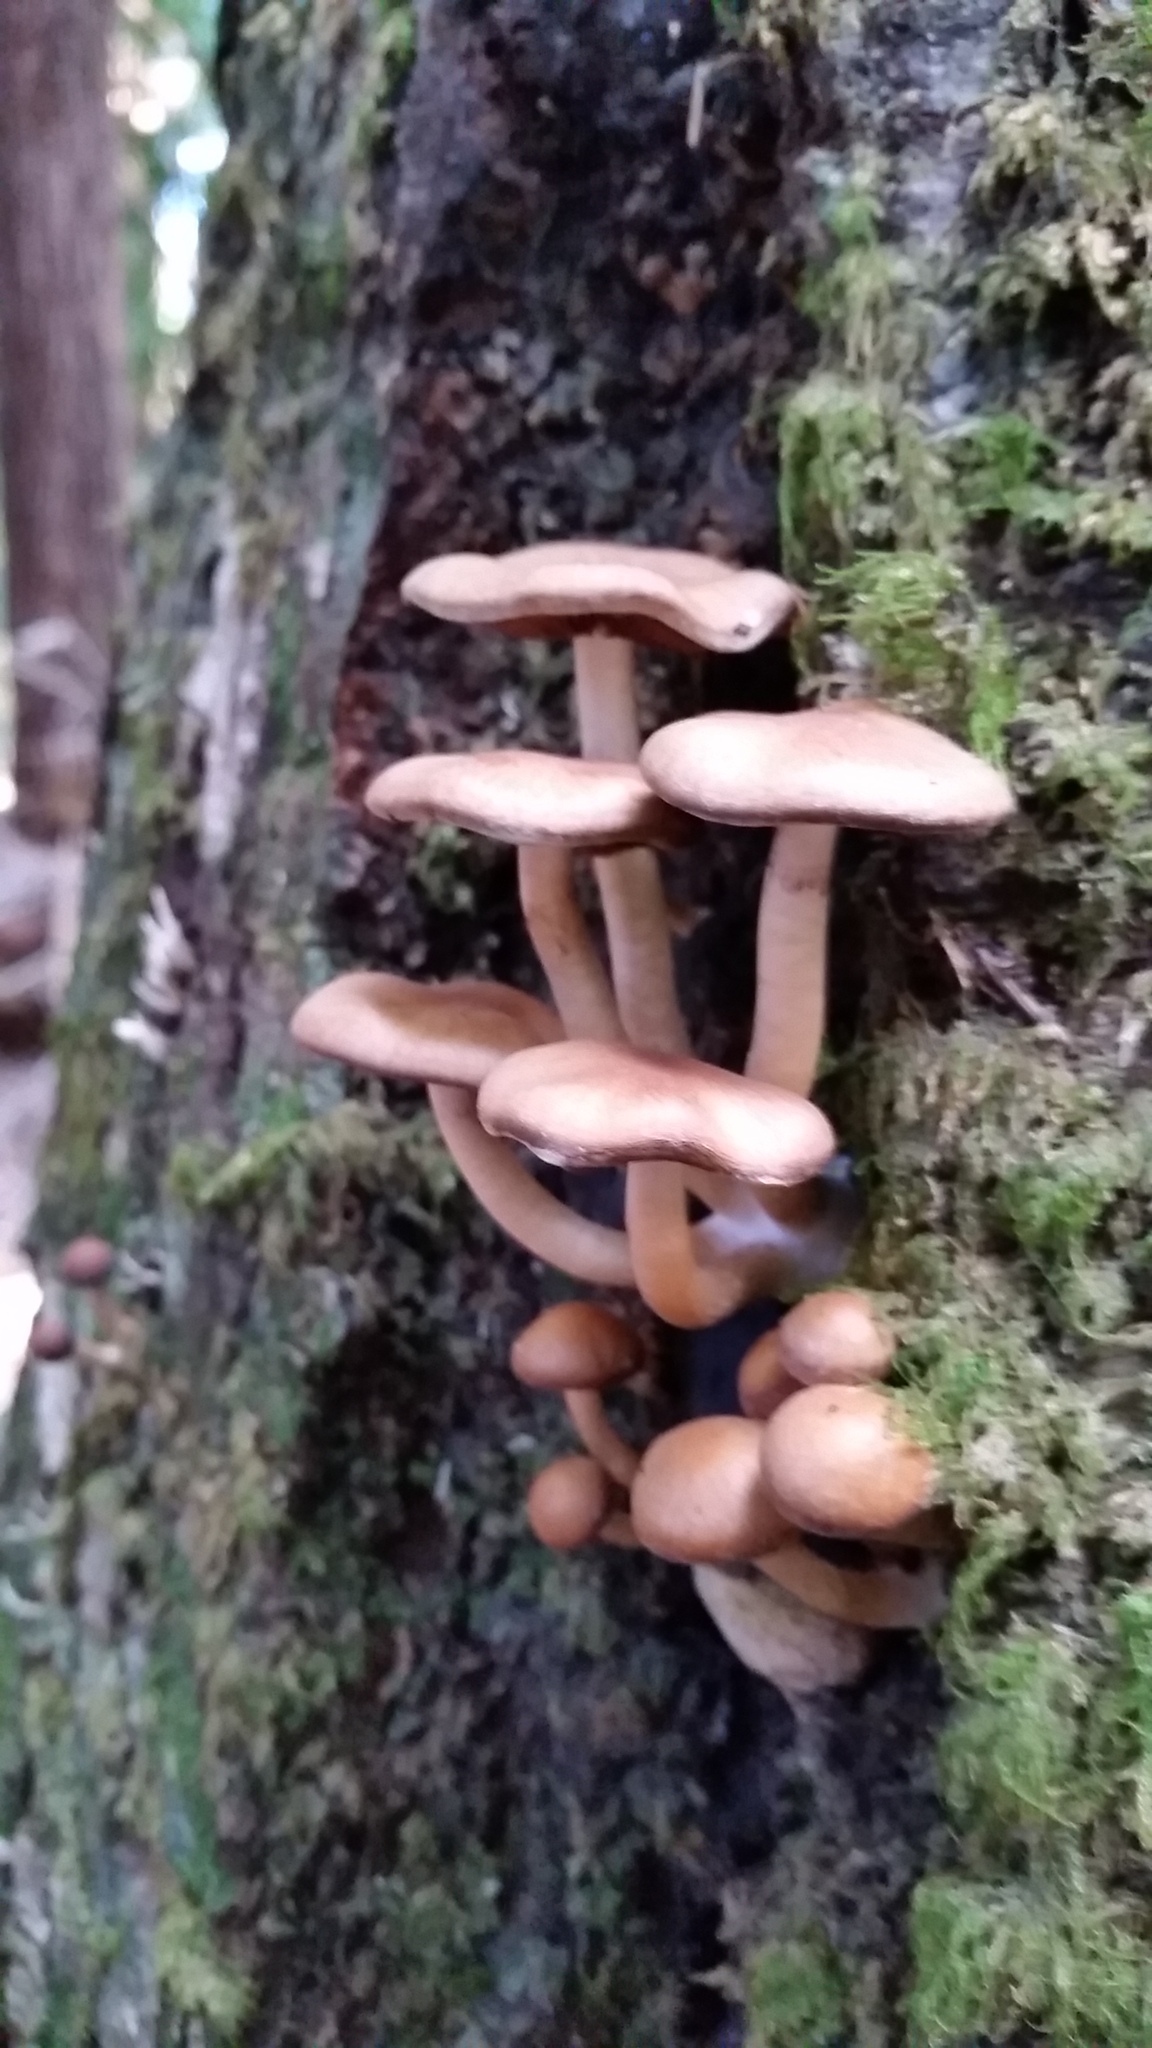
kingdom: Fungi
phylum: Basidiomycota
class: Agaricomycetes
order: Agaricales
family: Psathyrellaceae
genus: Psathyrella
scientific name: Psathyrella piluliformis
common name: Common stump brittlestem
